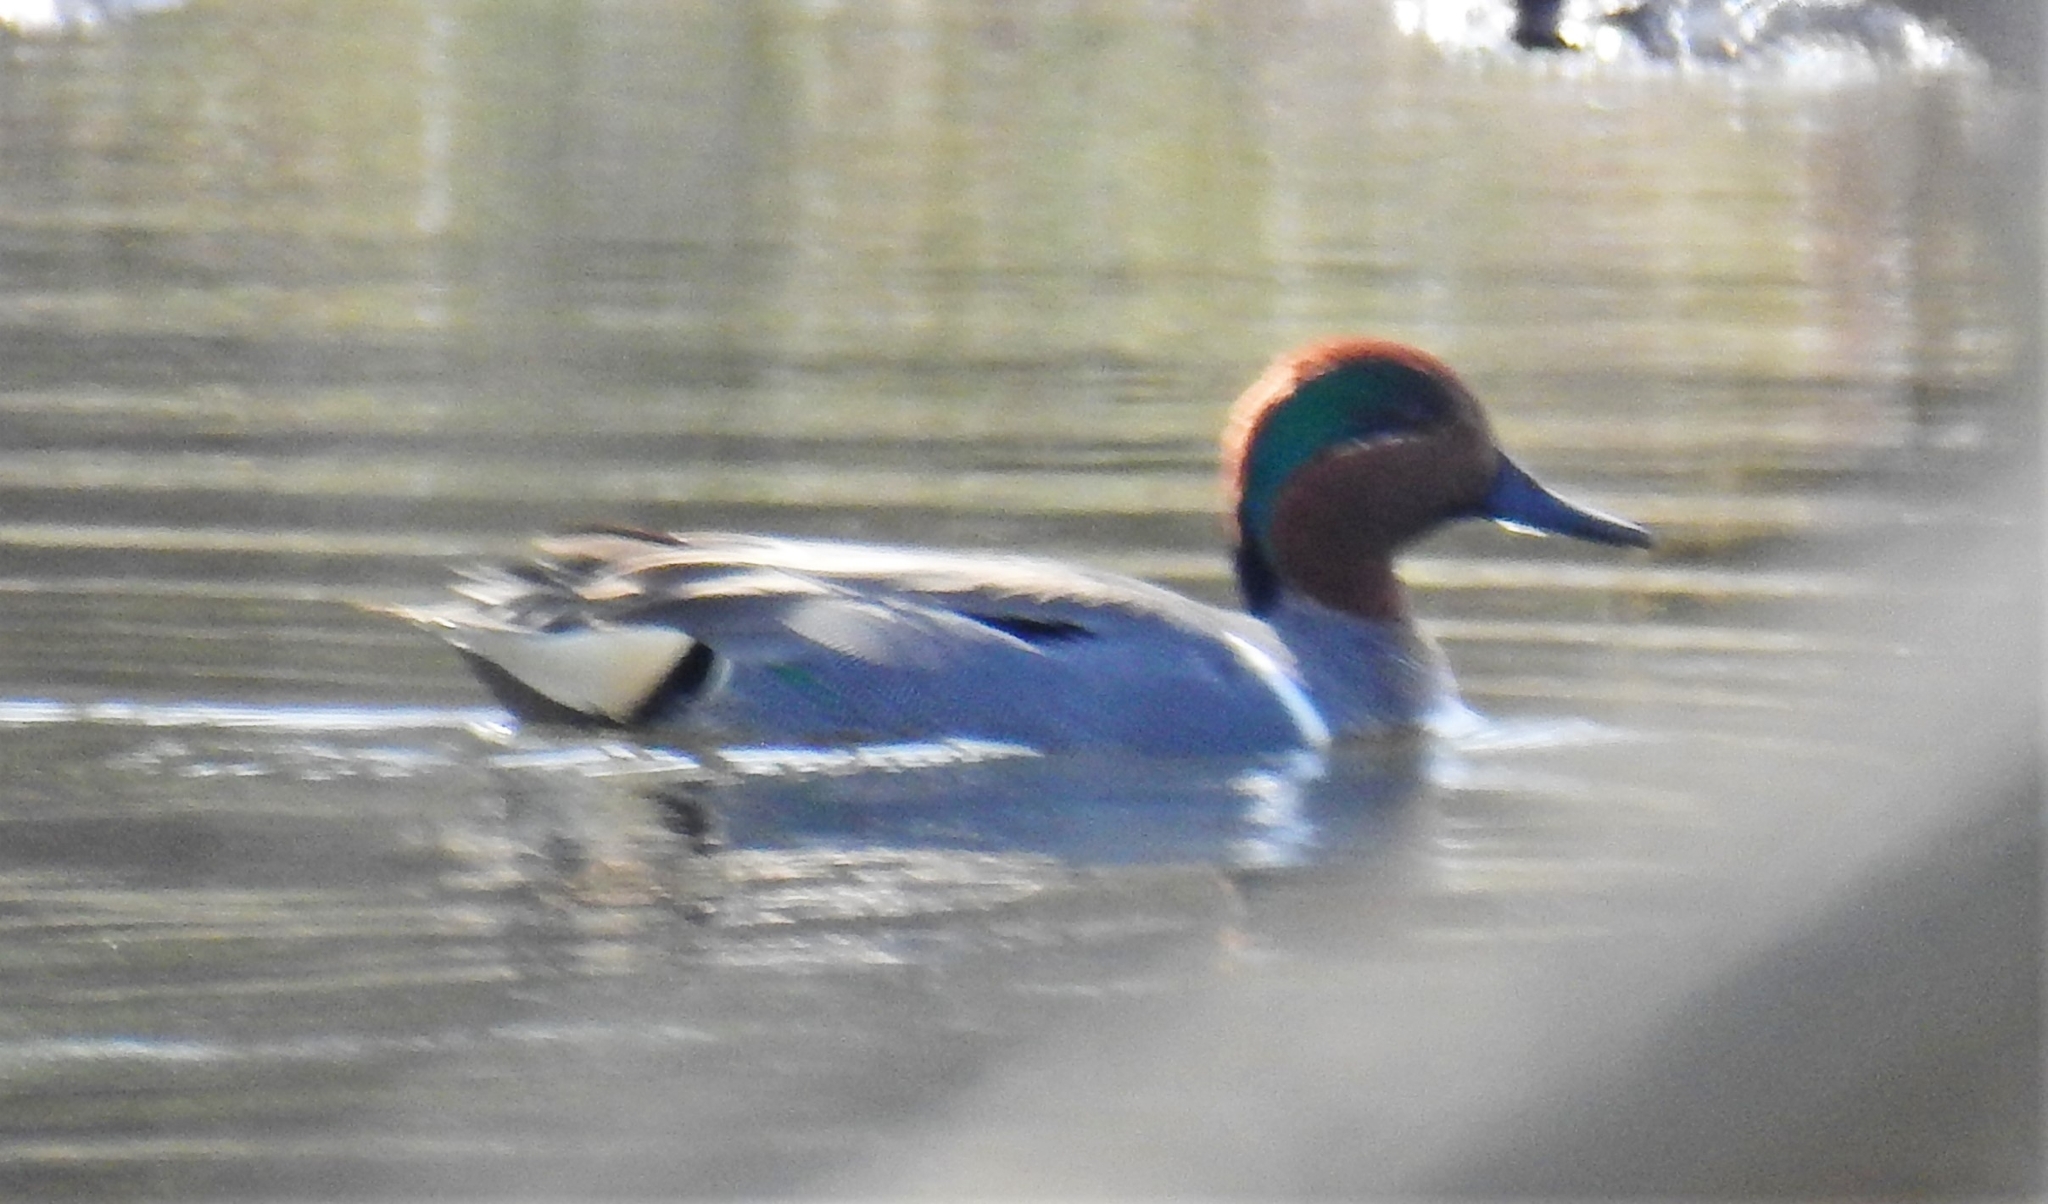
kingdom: Animalia
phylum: Chordata
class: Aves
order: Anseriformes
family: Anatidae
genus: Anas
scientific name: Anas crecca
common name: Eurasian teal
